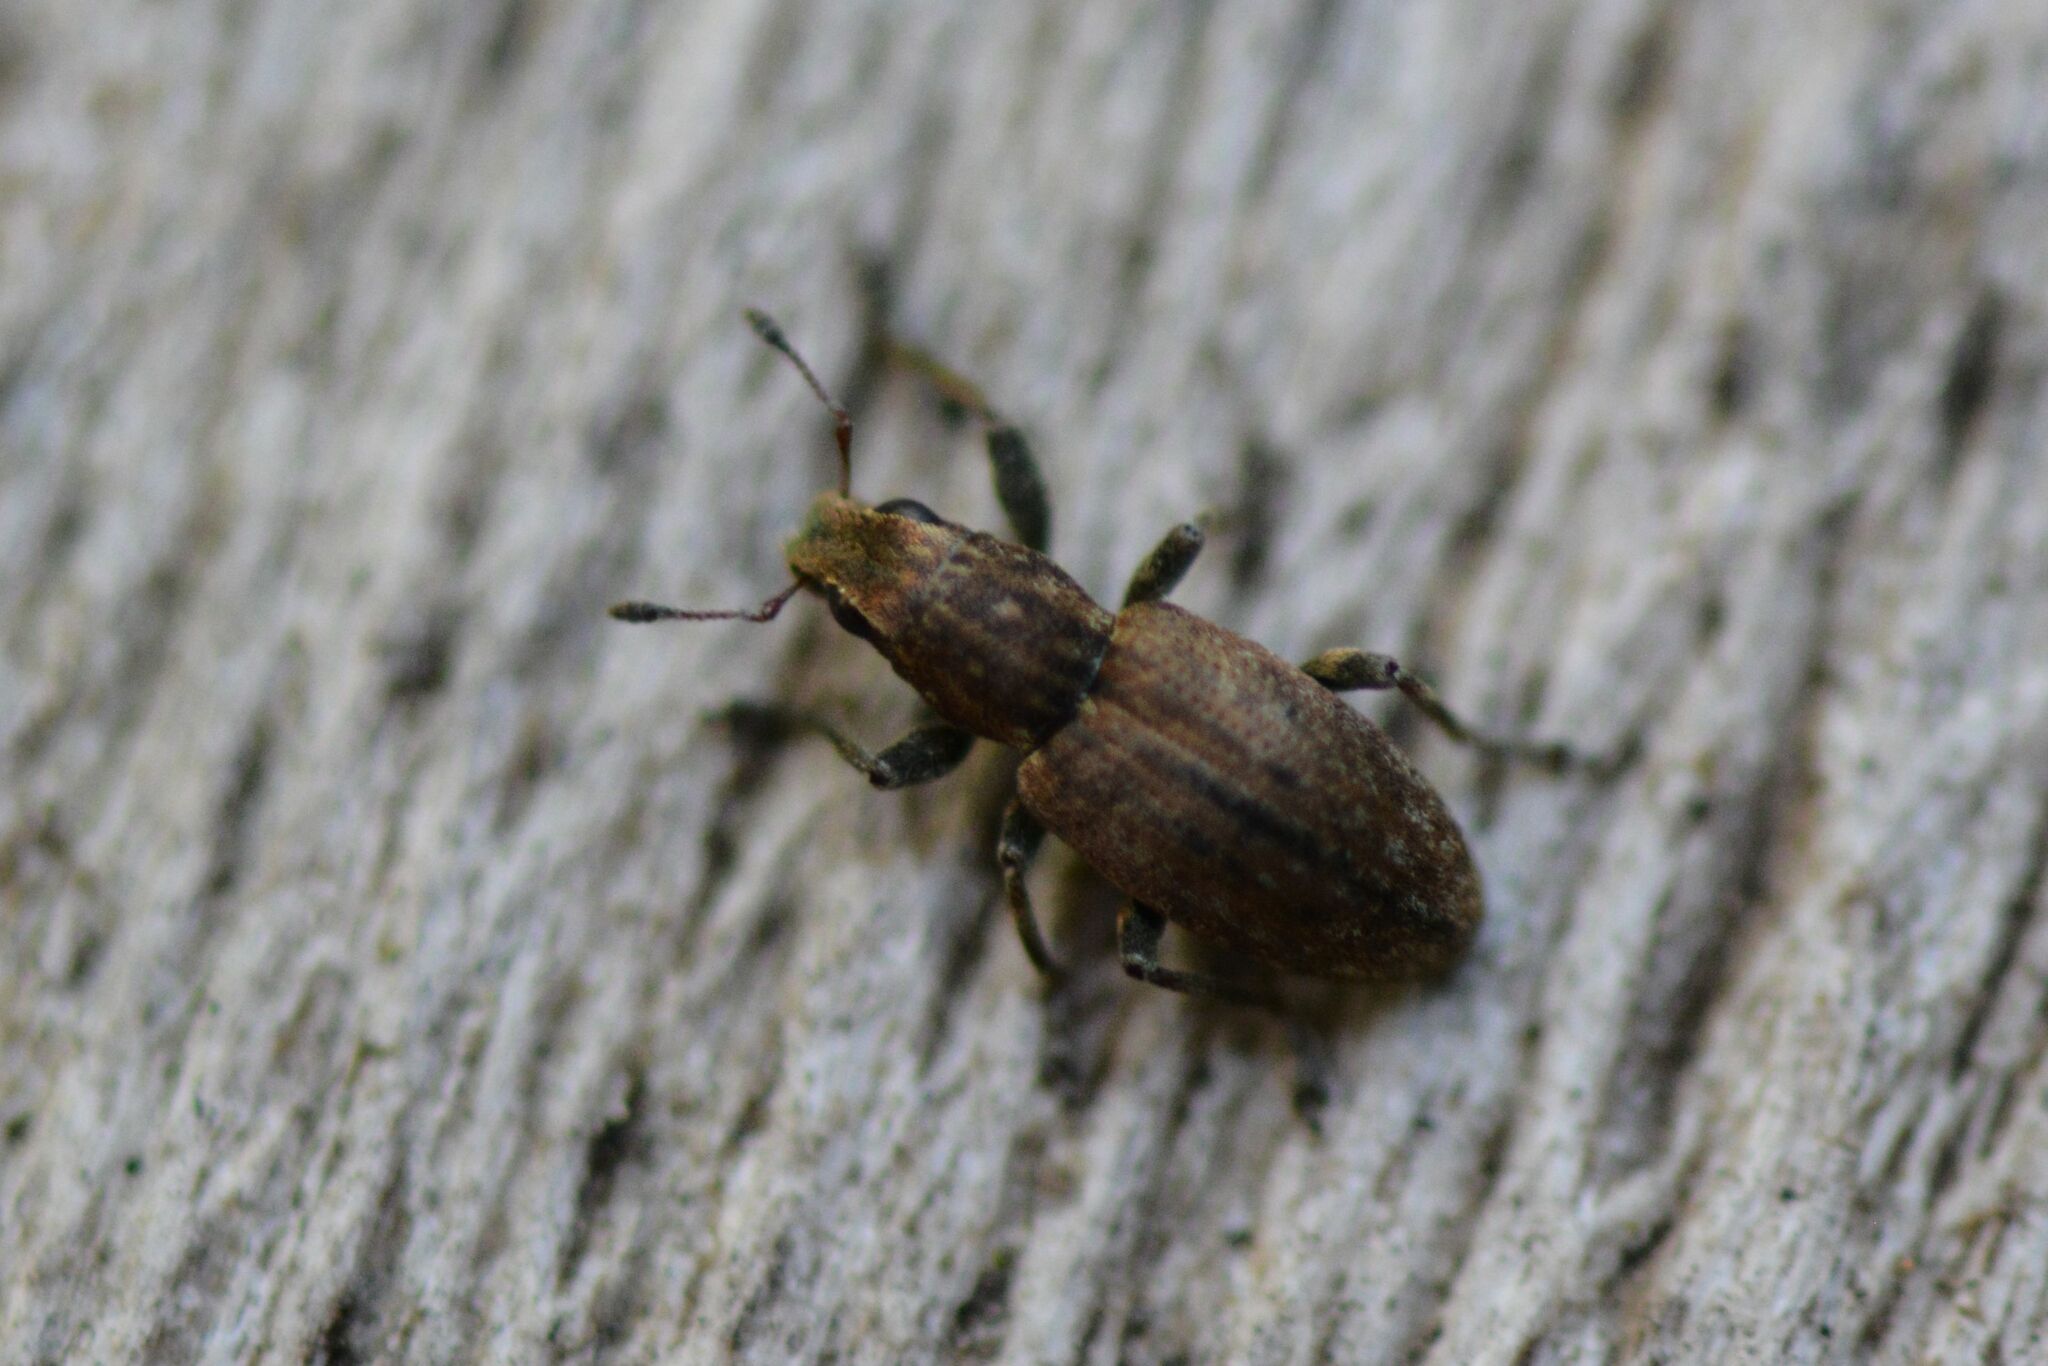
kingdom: Animalia
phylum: Arthropoda
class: Insecta
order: Coleoptera
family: Curculionidae
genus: Sitona
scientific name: Sitona obsoletus
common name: Weevil
